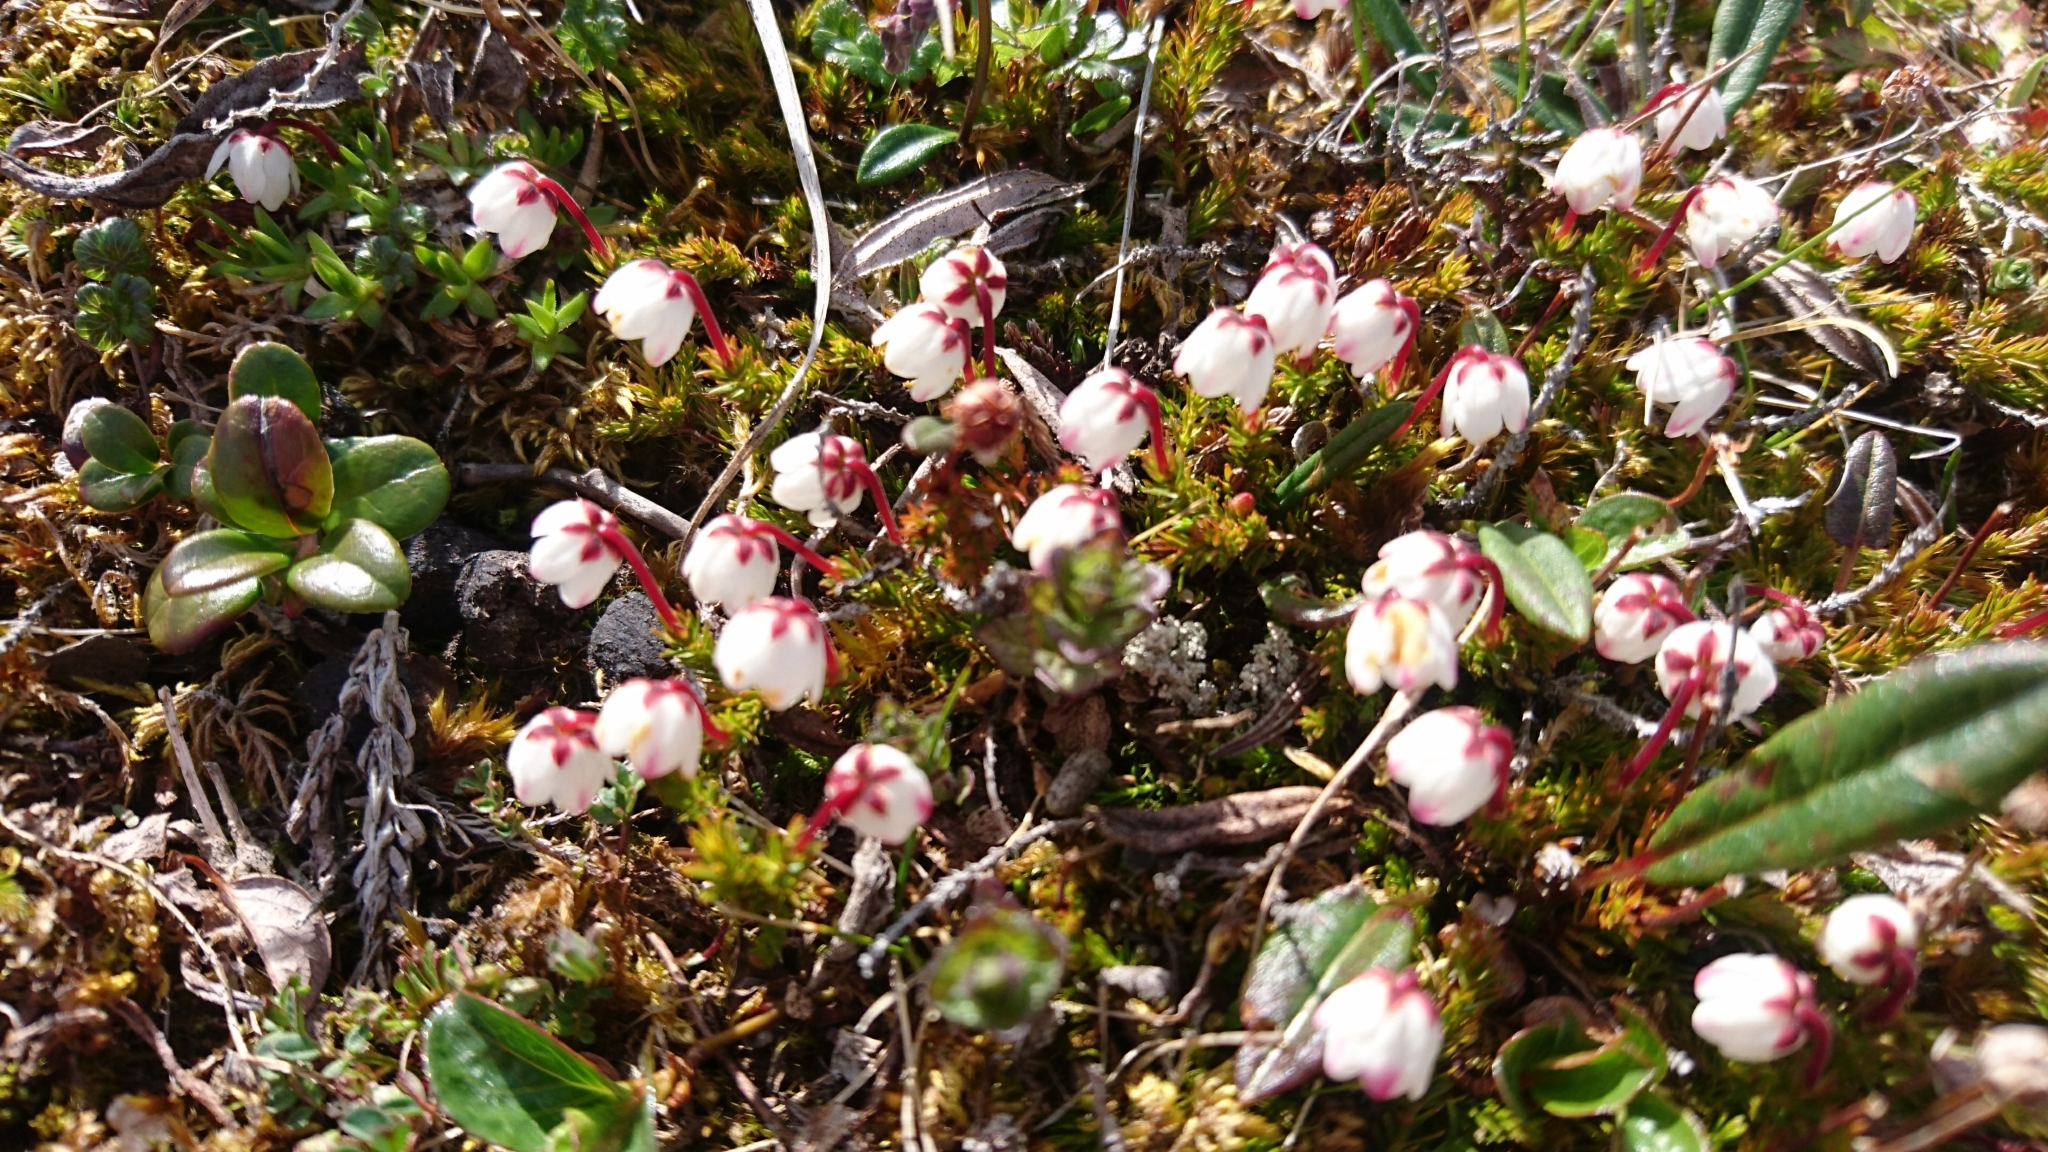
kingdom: Plantae
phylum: Tracheophyta
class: Magnoliopsida
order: Ericales
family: Ericaceae
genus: Harrimanella
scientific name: Harrimanella hypnoides
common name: Moss bell heather
